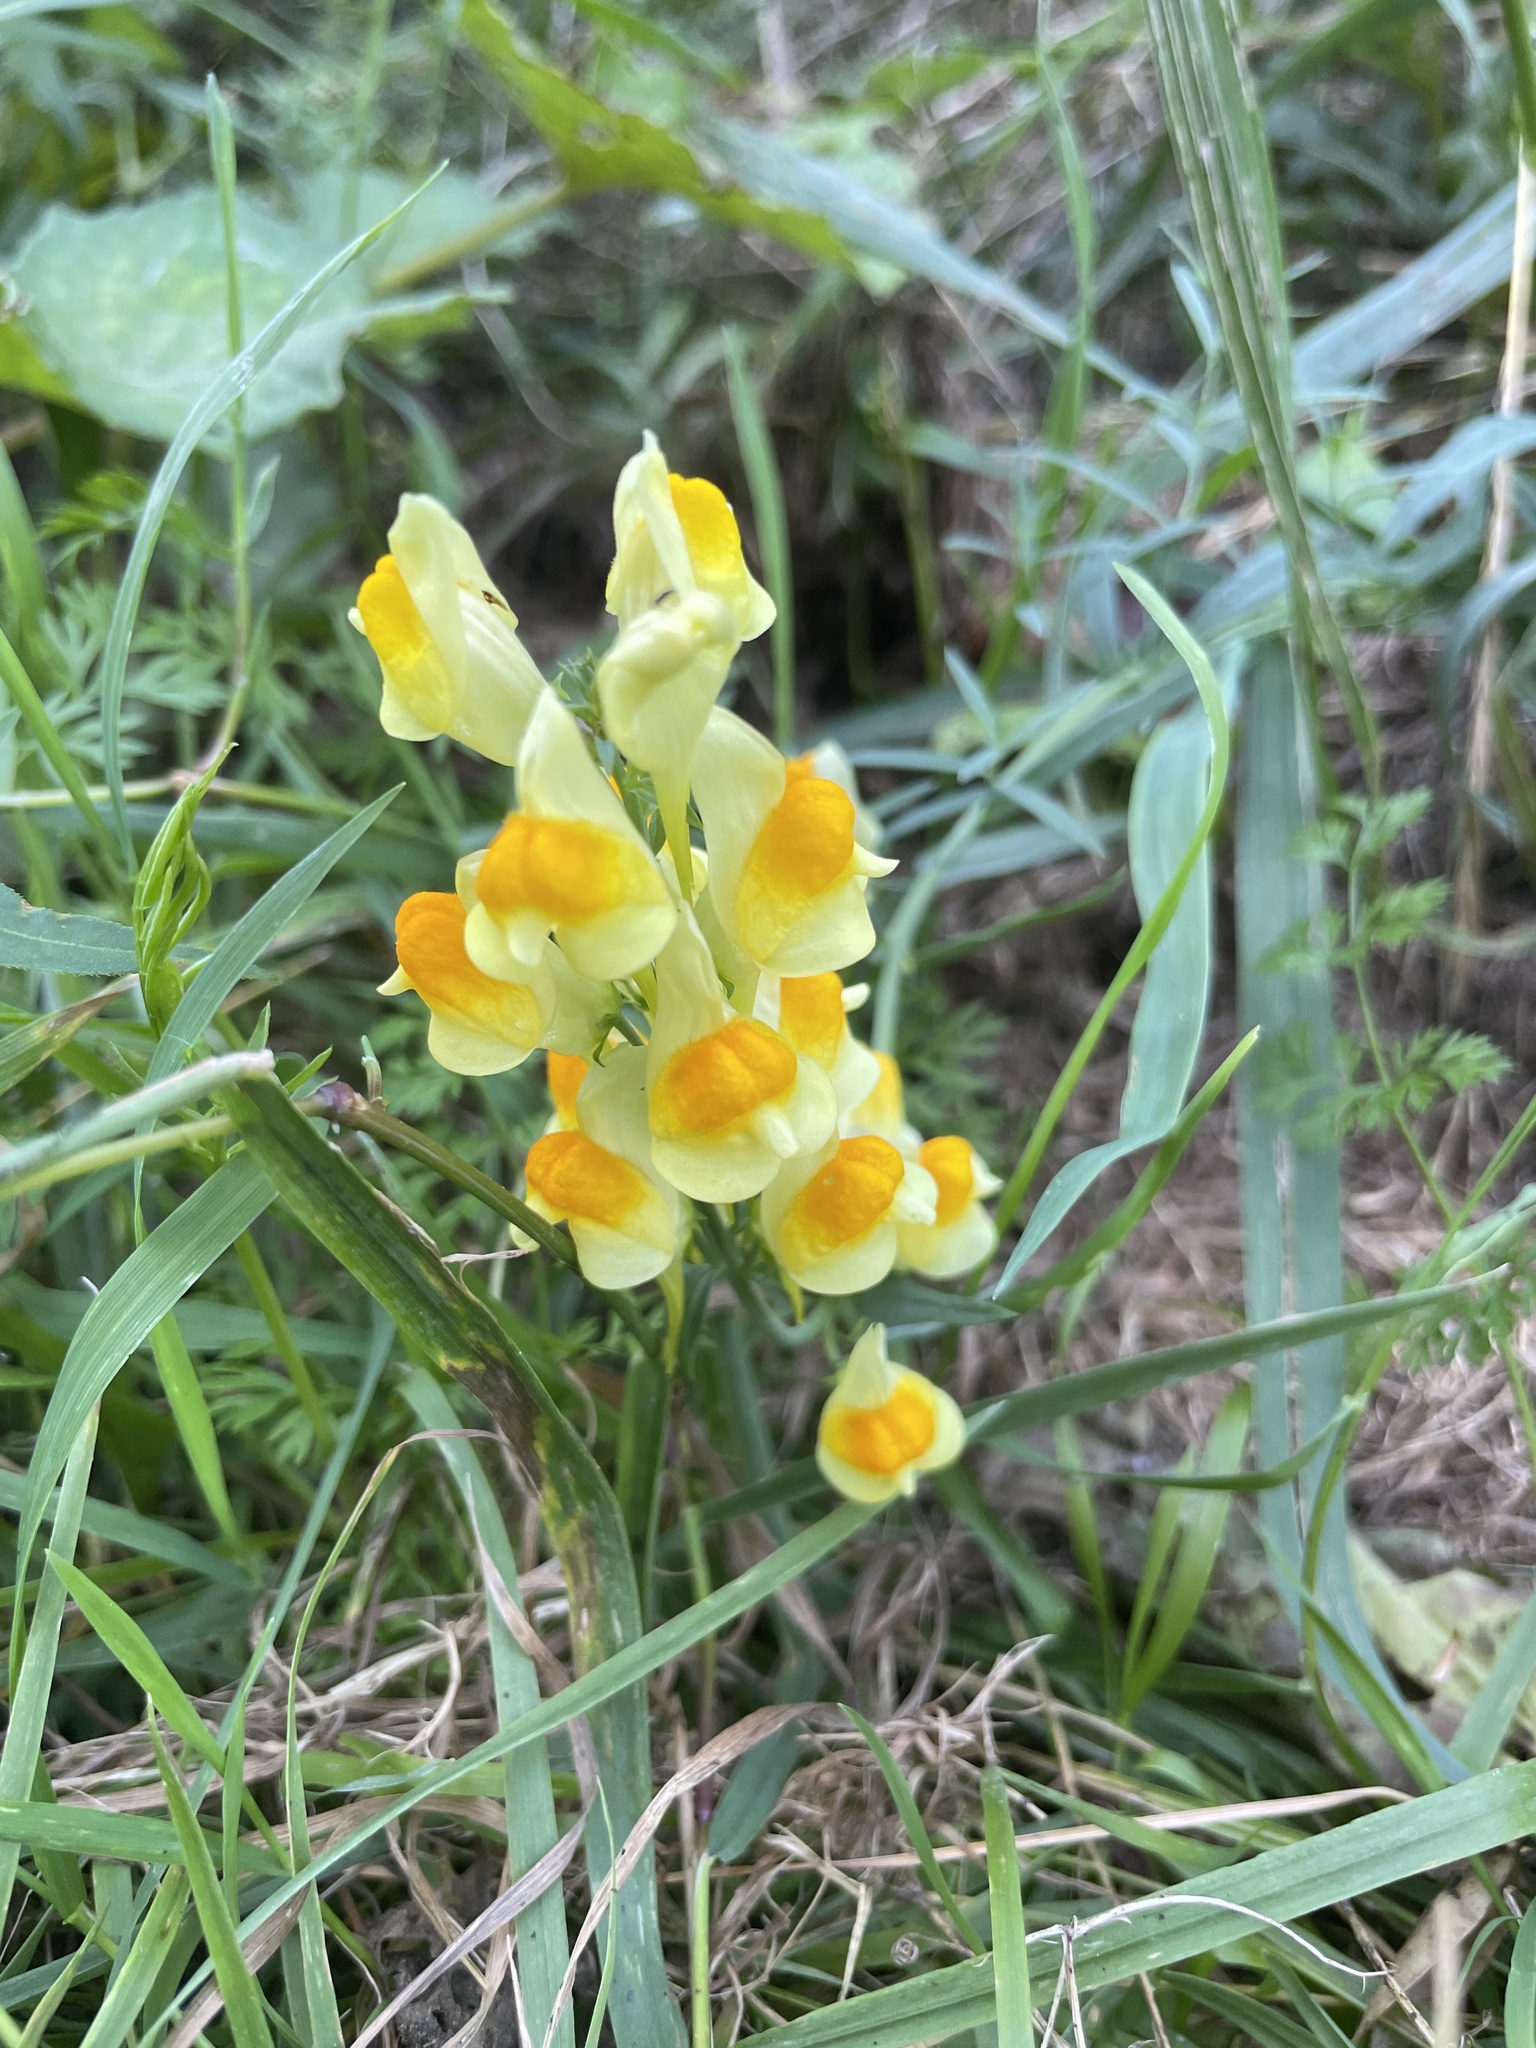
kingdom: Plantae
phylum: Tracheophyta
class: Magnoliopsida
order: Lamiales
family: Plantaginaceae
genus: Linaria
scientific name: Linaria vulgaris
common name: Butter and eggs
